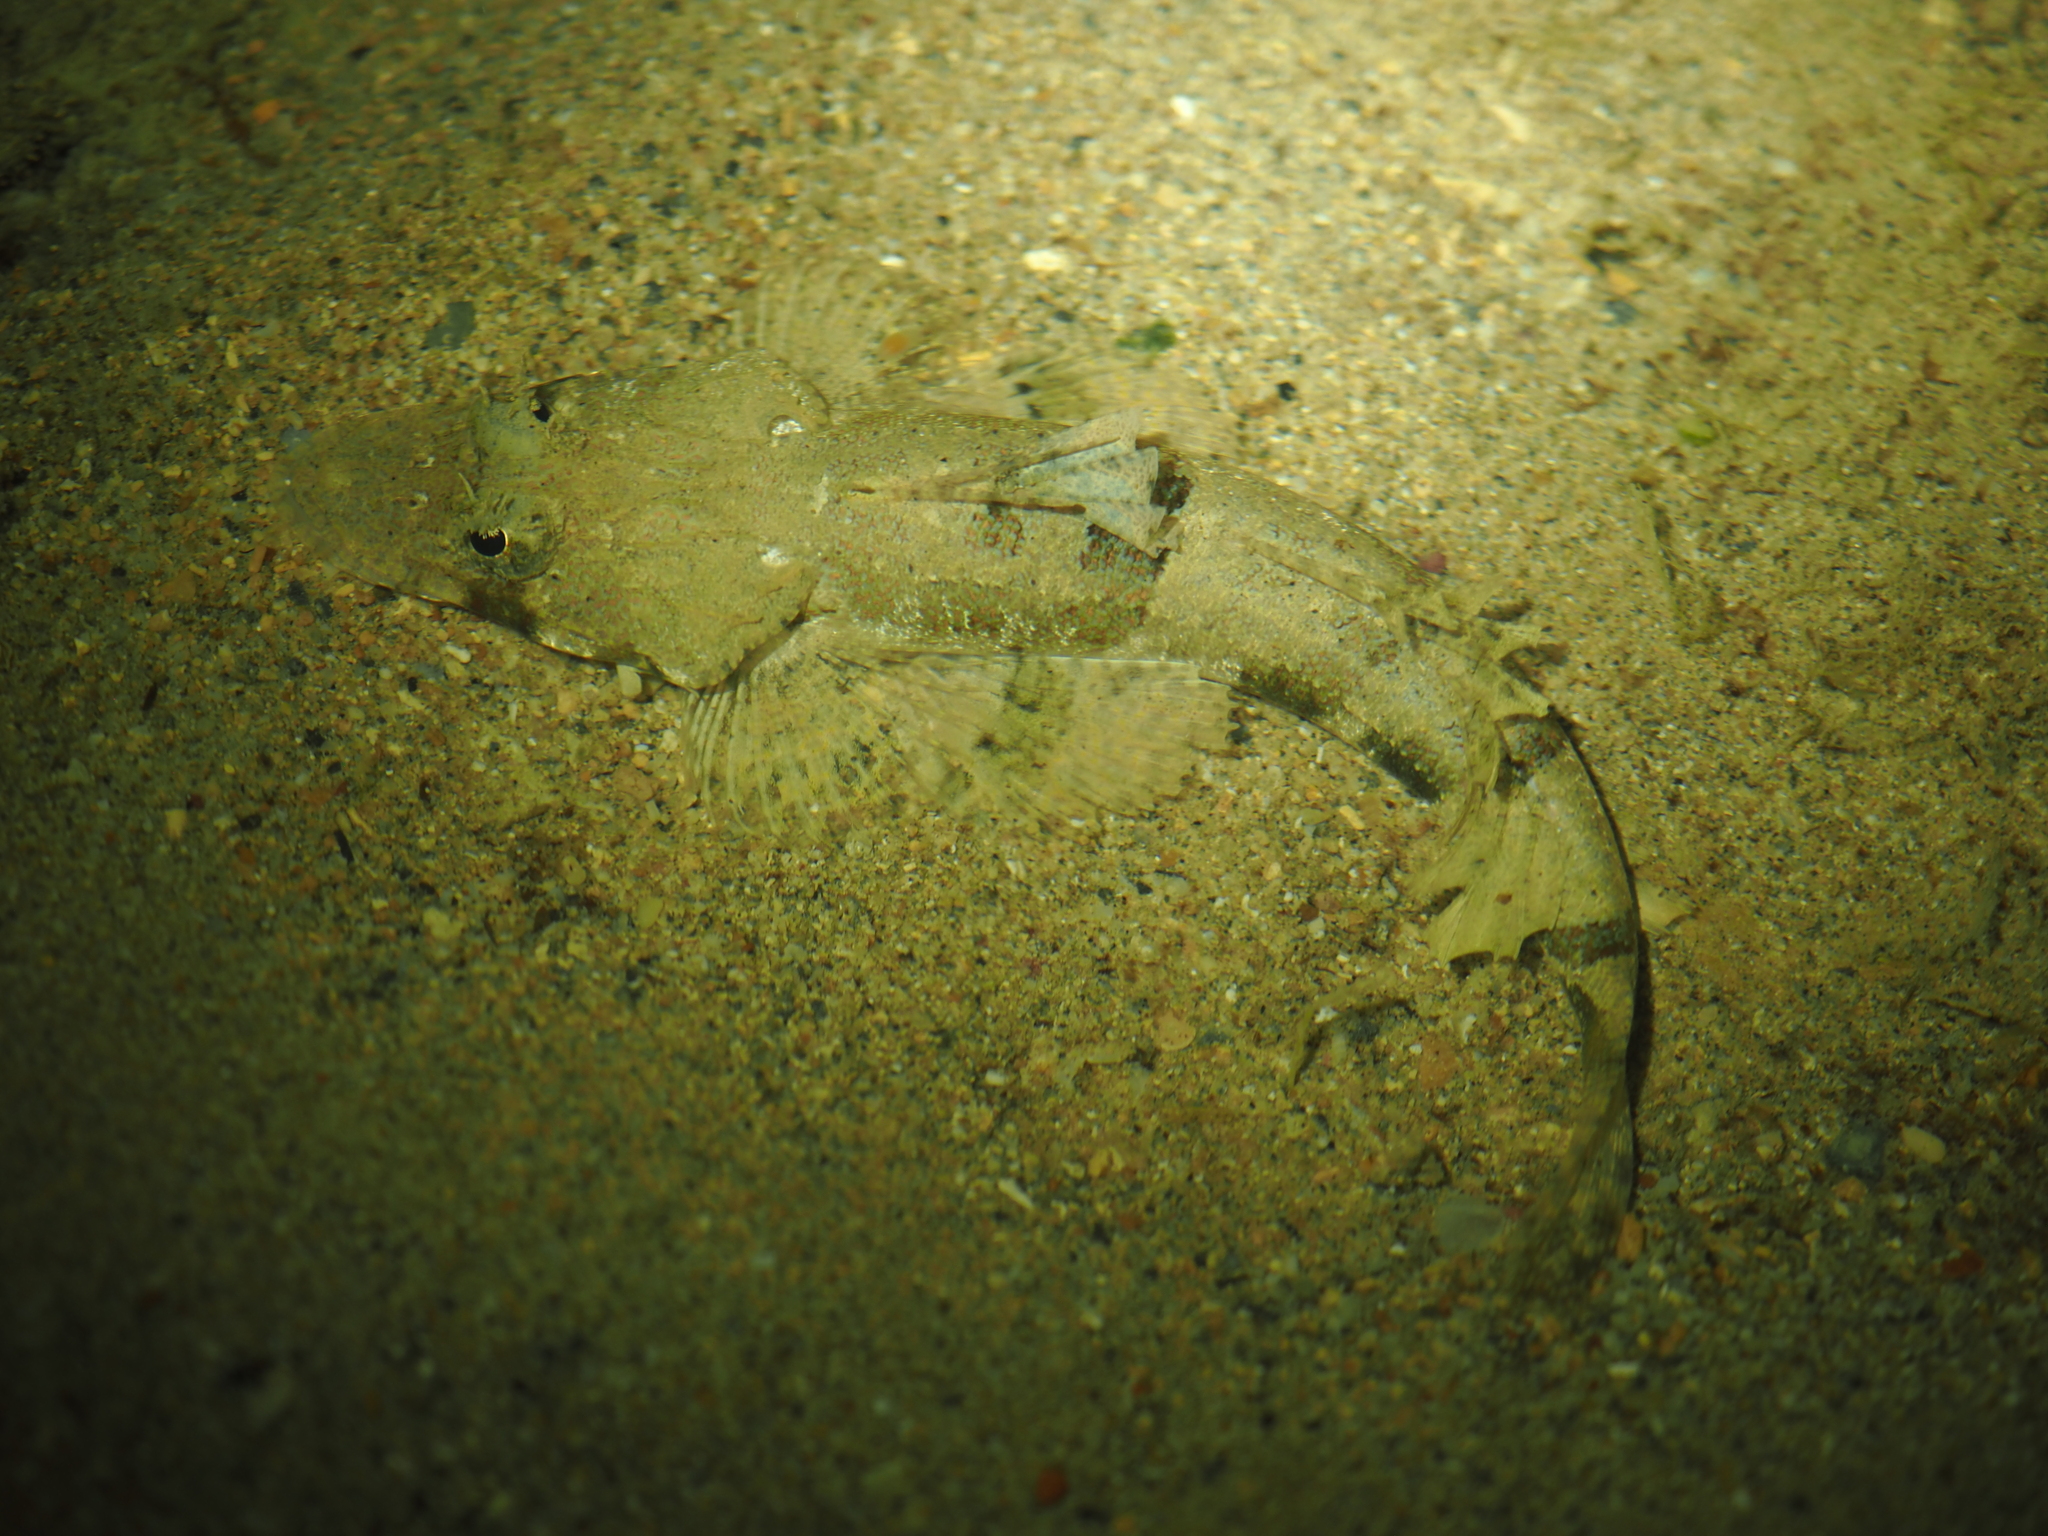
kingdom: Animalia
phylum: Chordata
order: Scorpaeniformes
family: Platycephalidae
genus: Cymbacephalus
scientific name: Cymbacephalus nematophthalmus
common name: Fringe-eyed flathead
